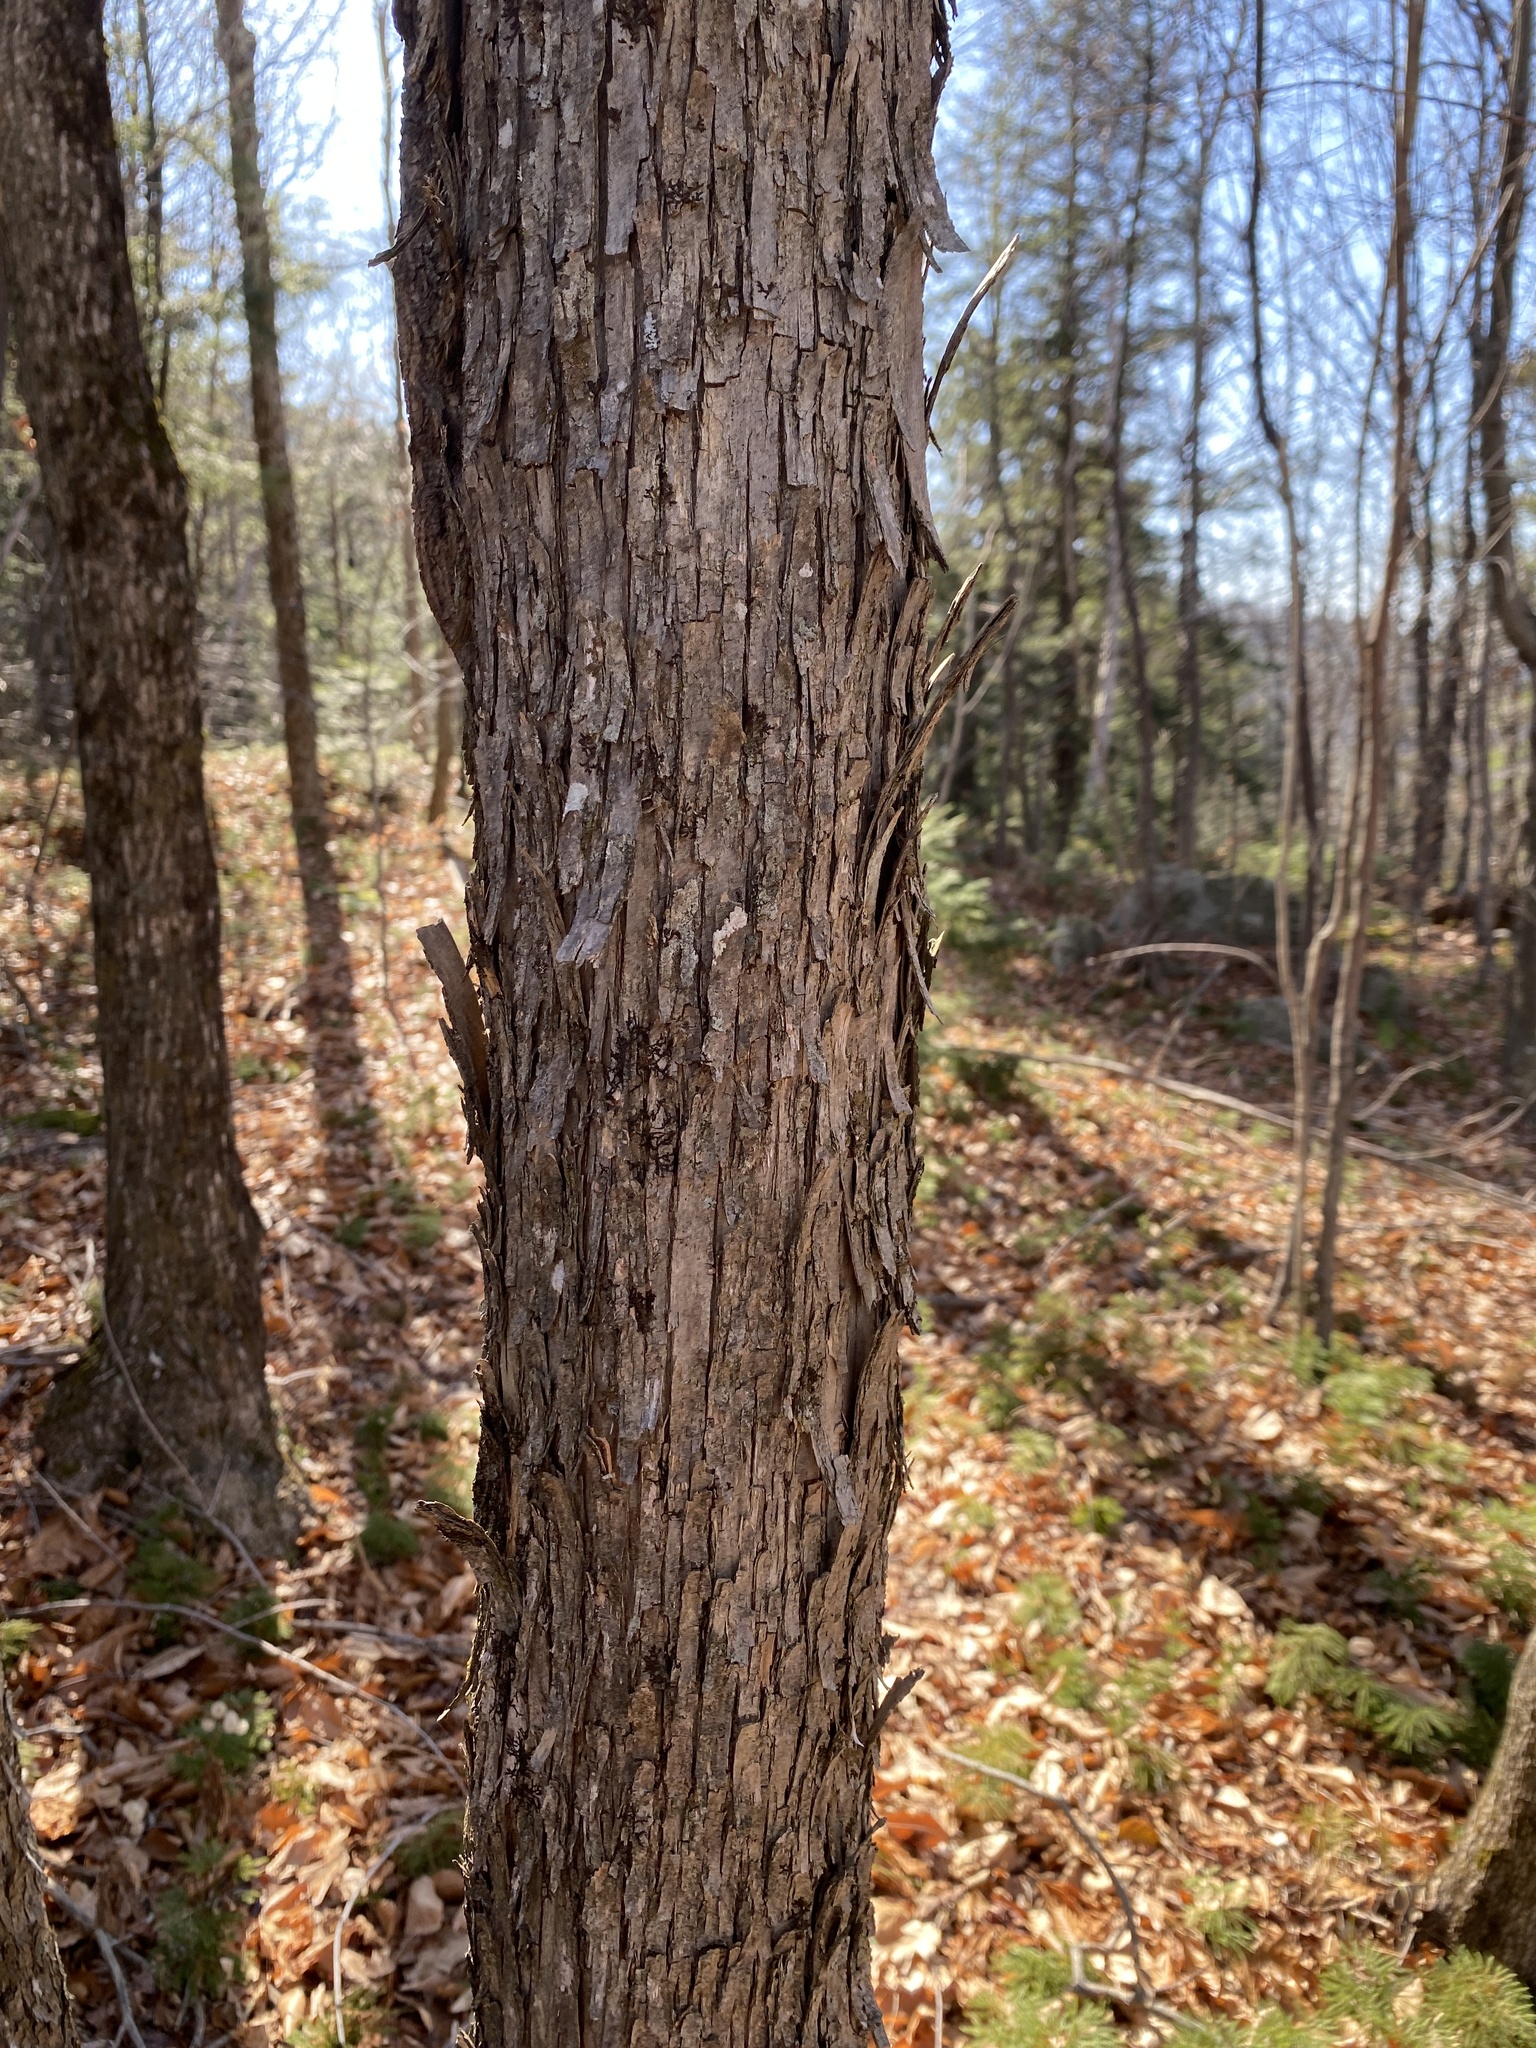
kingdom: Plantae
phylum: Tracheophyta
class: Magnoliopsida
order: Fagales
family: Betulaceae
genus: Ostrya
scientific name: Ostrya virginiana
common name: Ironwood
